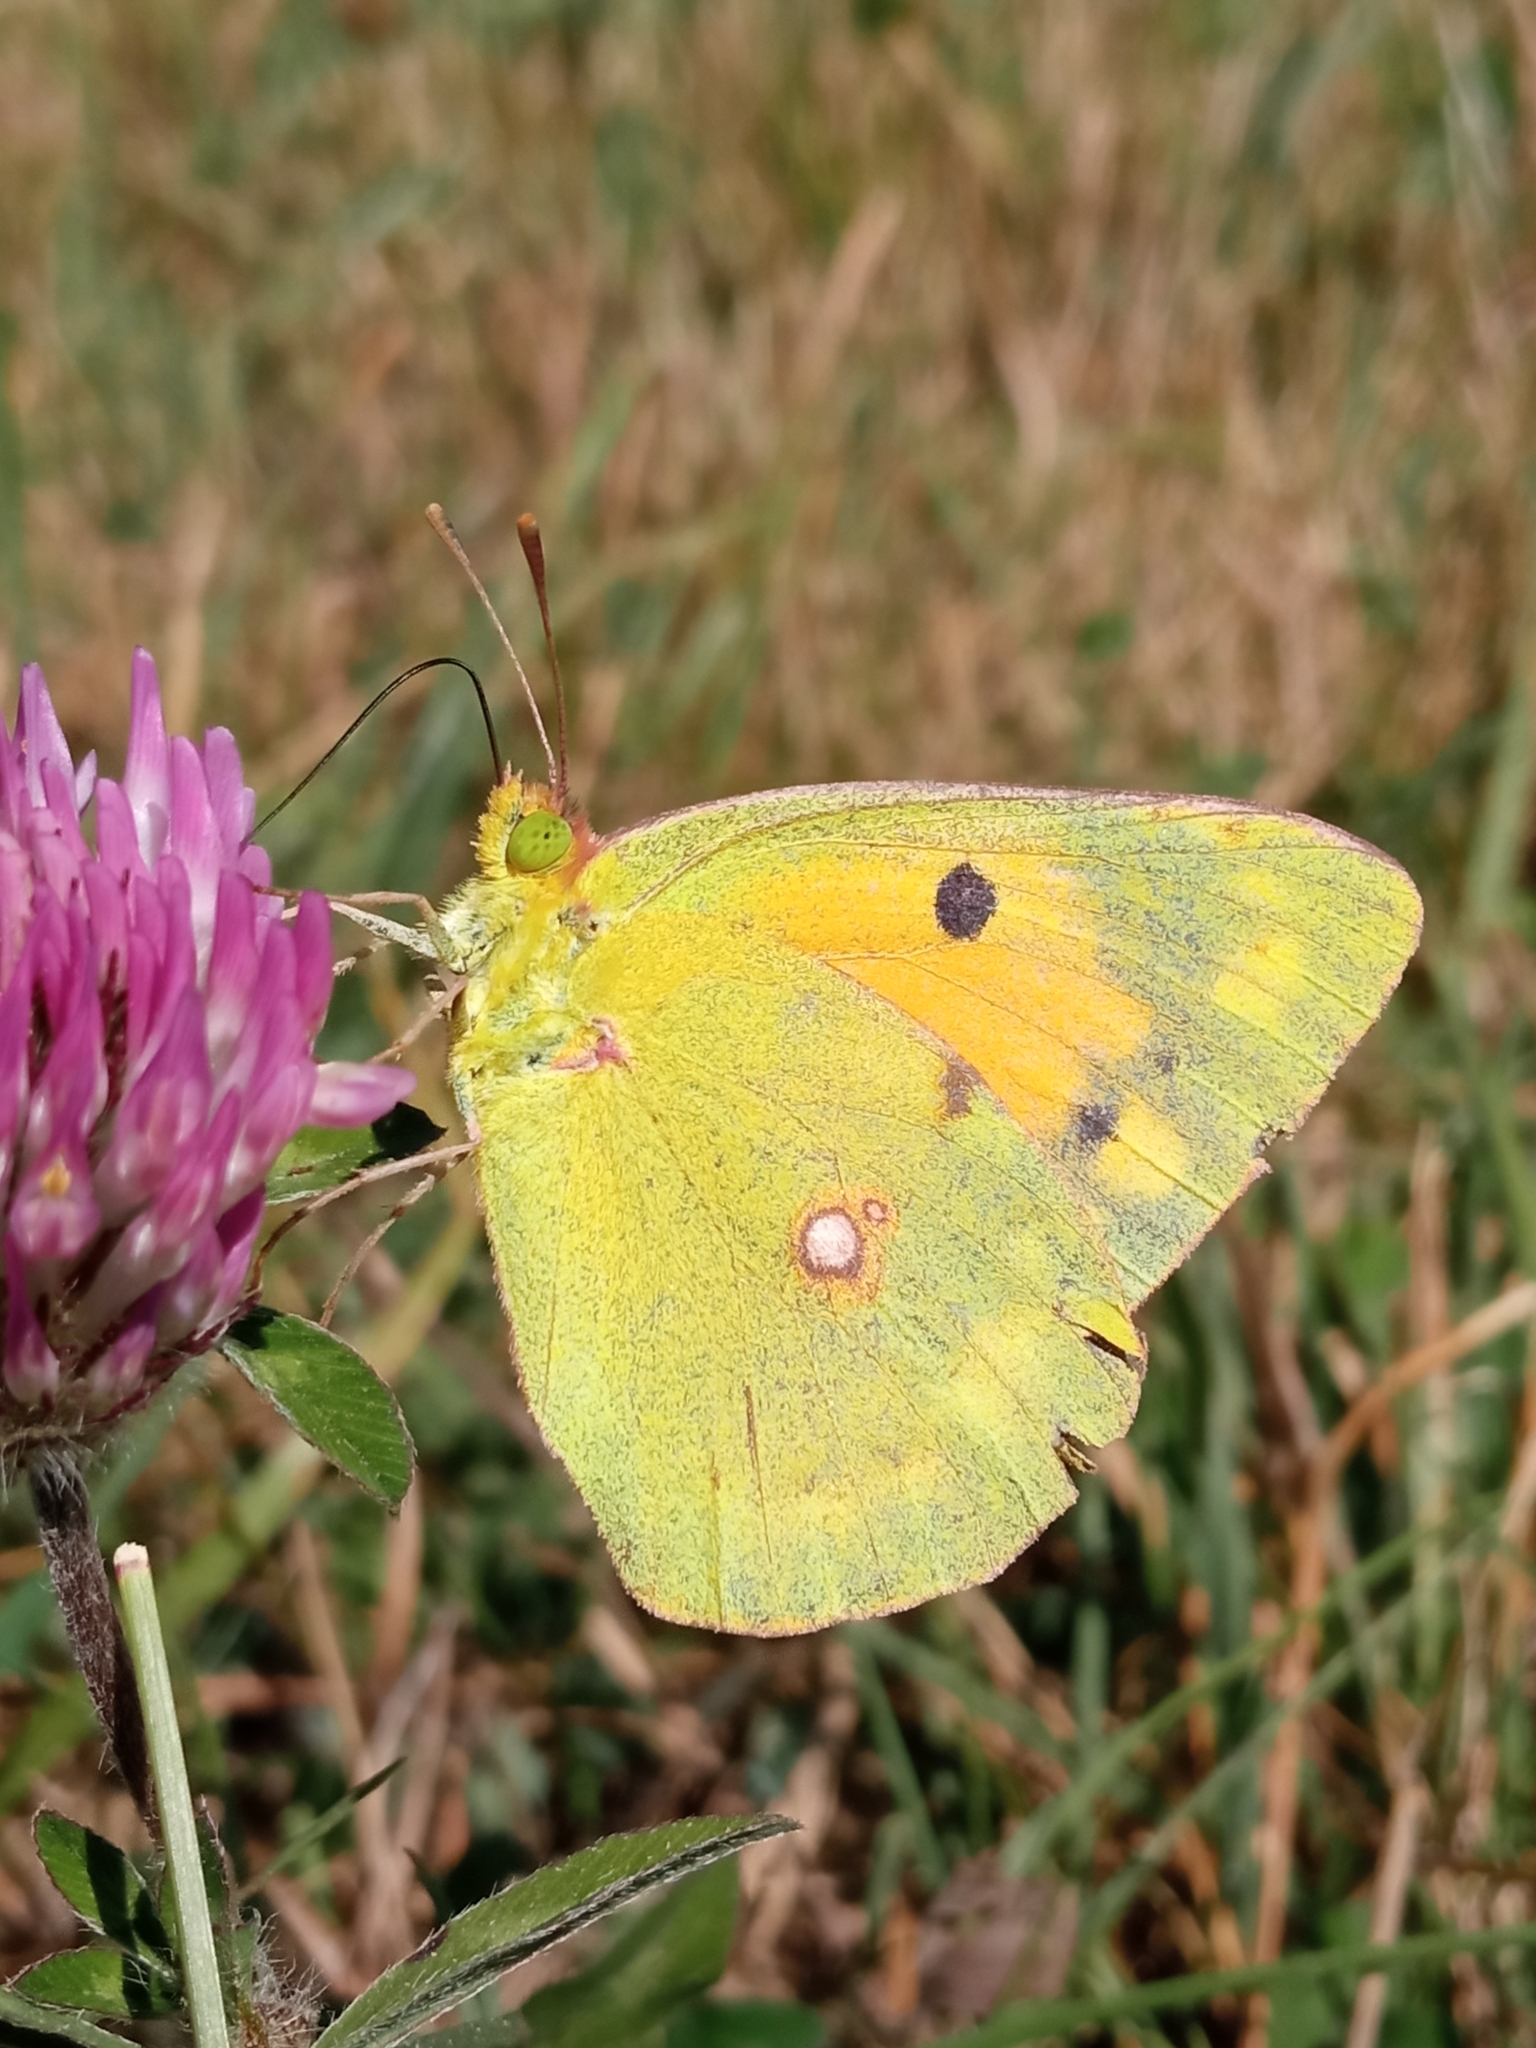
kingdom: Animalia
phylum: Arthropoda
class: Insecta
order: Lepidoptera
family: Pieridae
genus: Colias
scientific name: Colias croceus
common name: Clouded yellow
